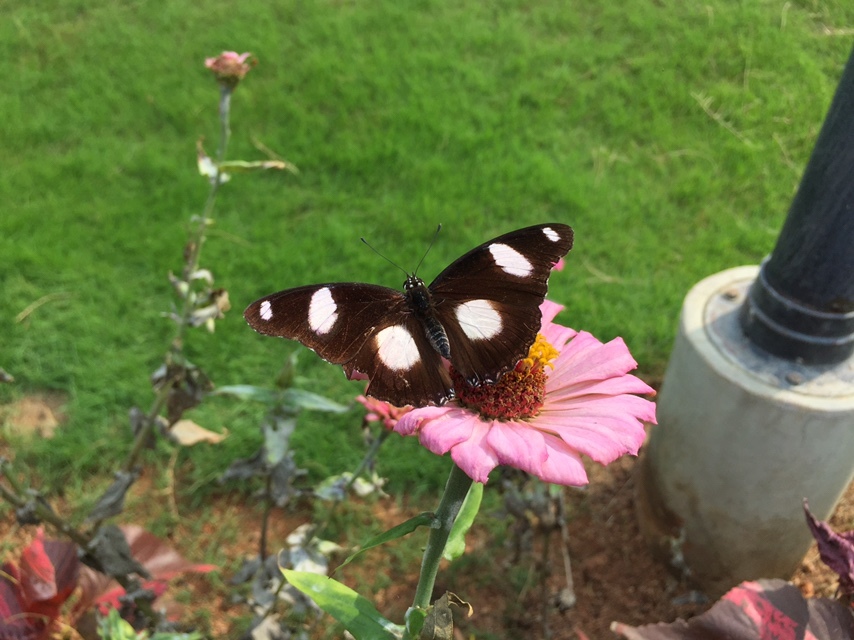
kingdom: Animalia
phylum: Arthropoda
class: Insecta
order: Lepidoptera
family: Nymphalidae
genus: Hypolimnas
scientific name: Hypolimnas misippus
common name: False plain tiger
